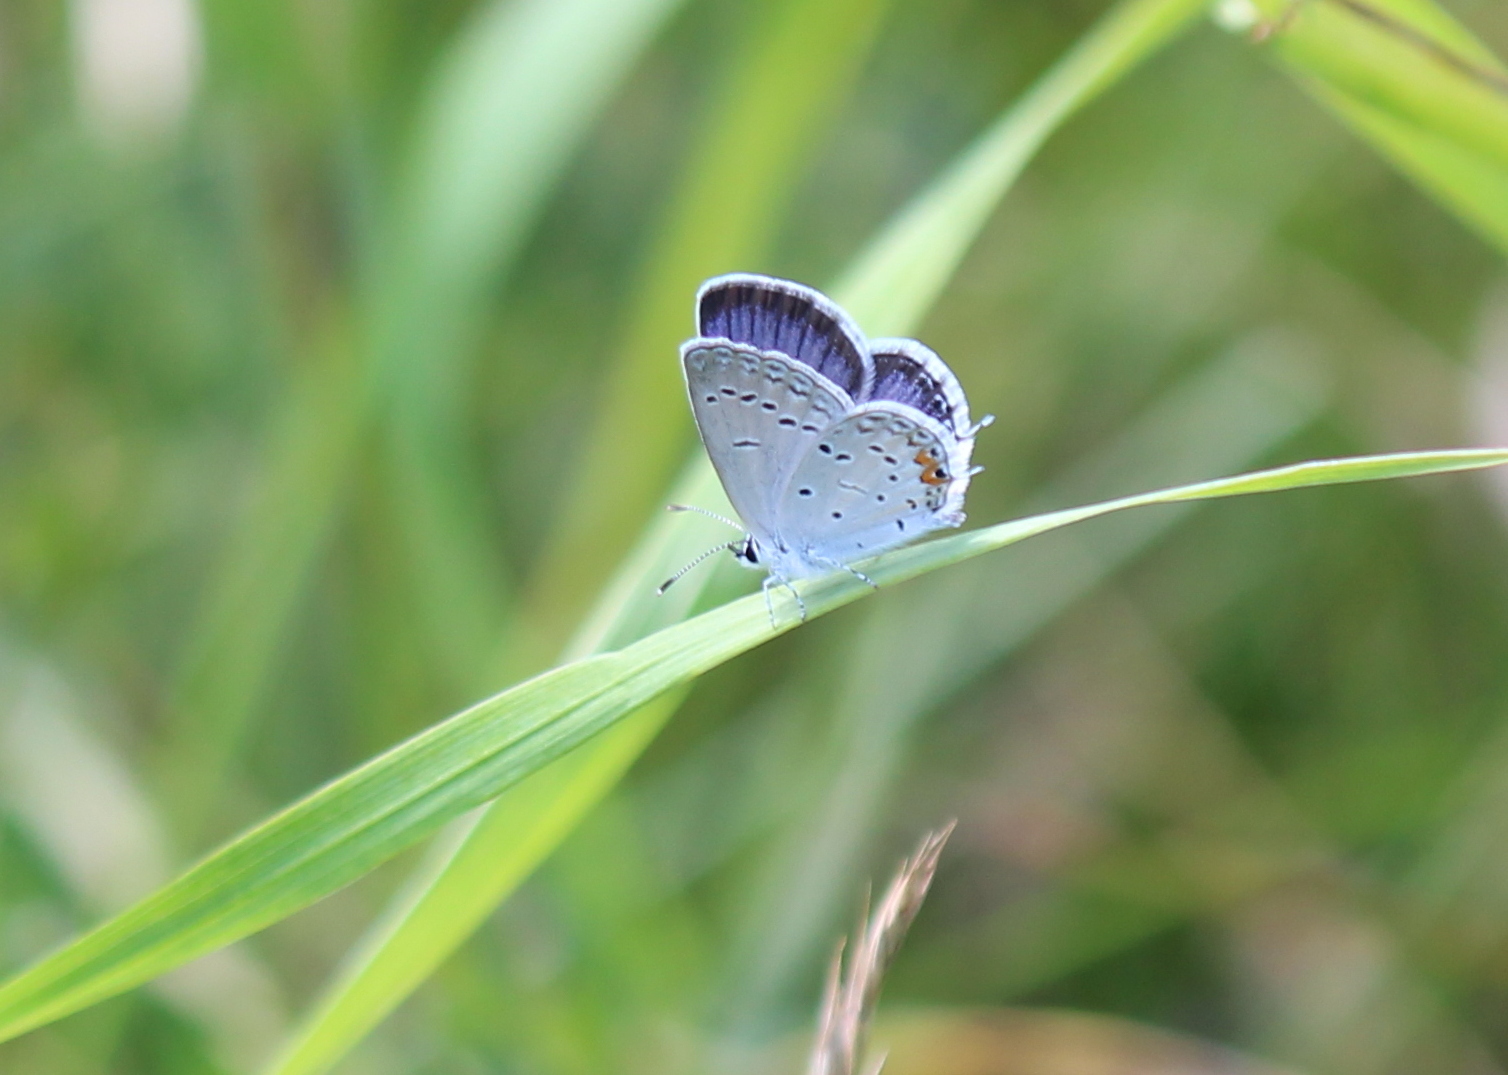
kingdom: Animalia
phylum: Arthropoda
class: Insecta
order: Lepidoptera
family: Lycaenidae
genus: Elkalyce
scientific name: Elkalyce comyntas
